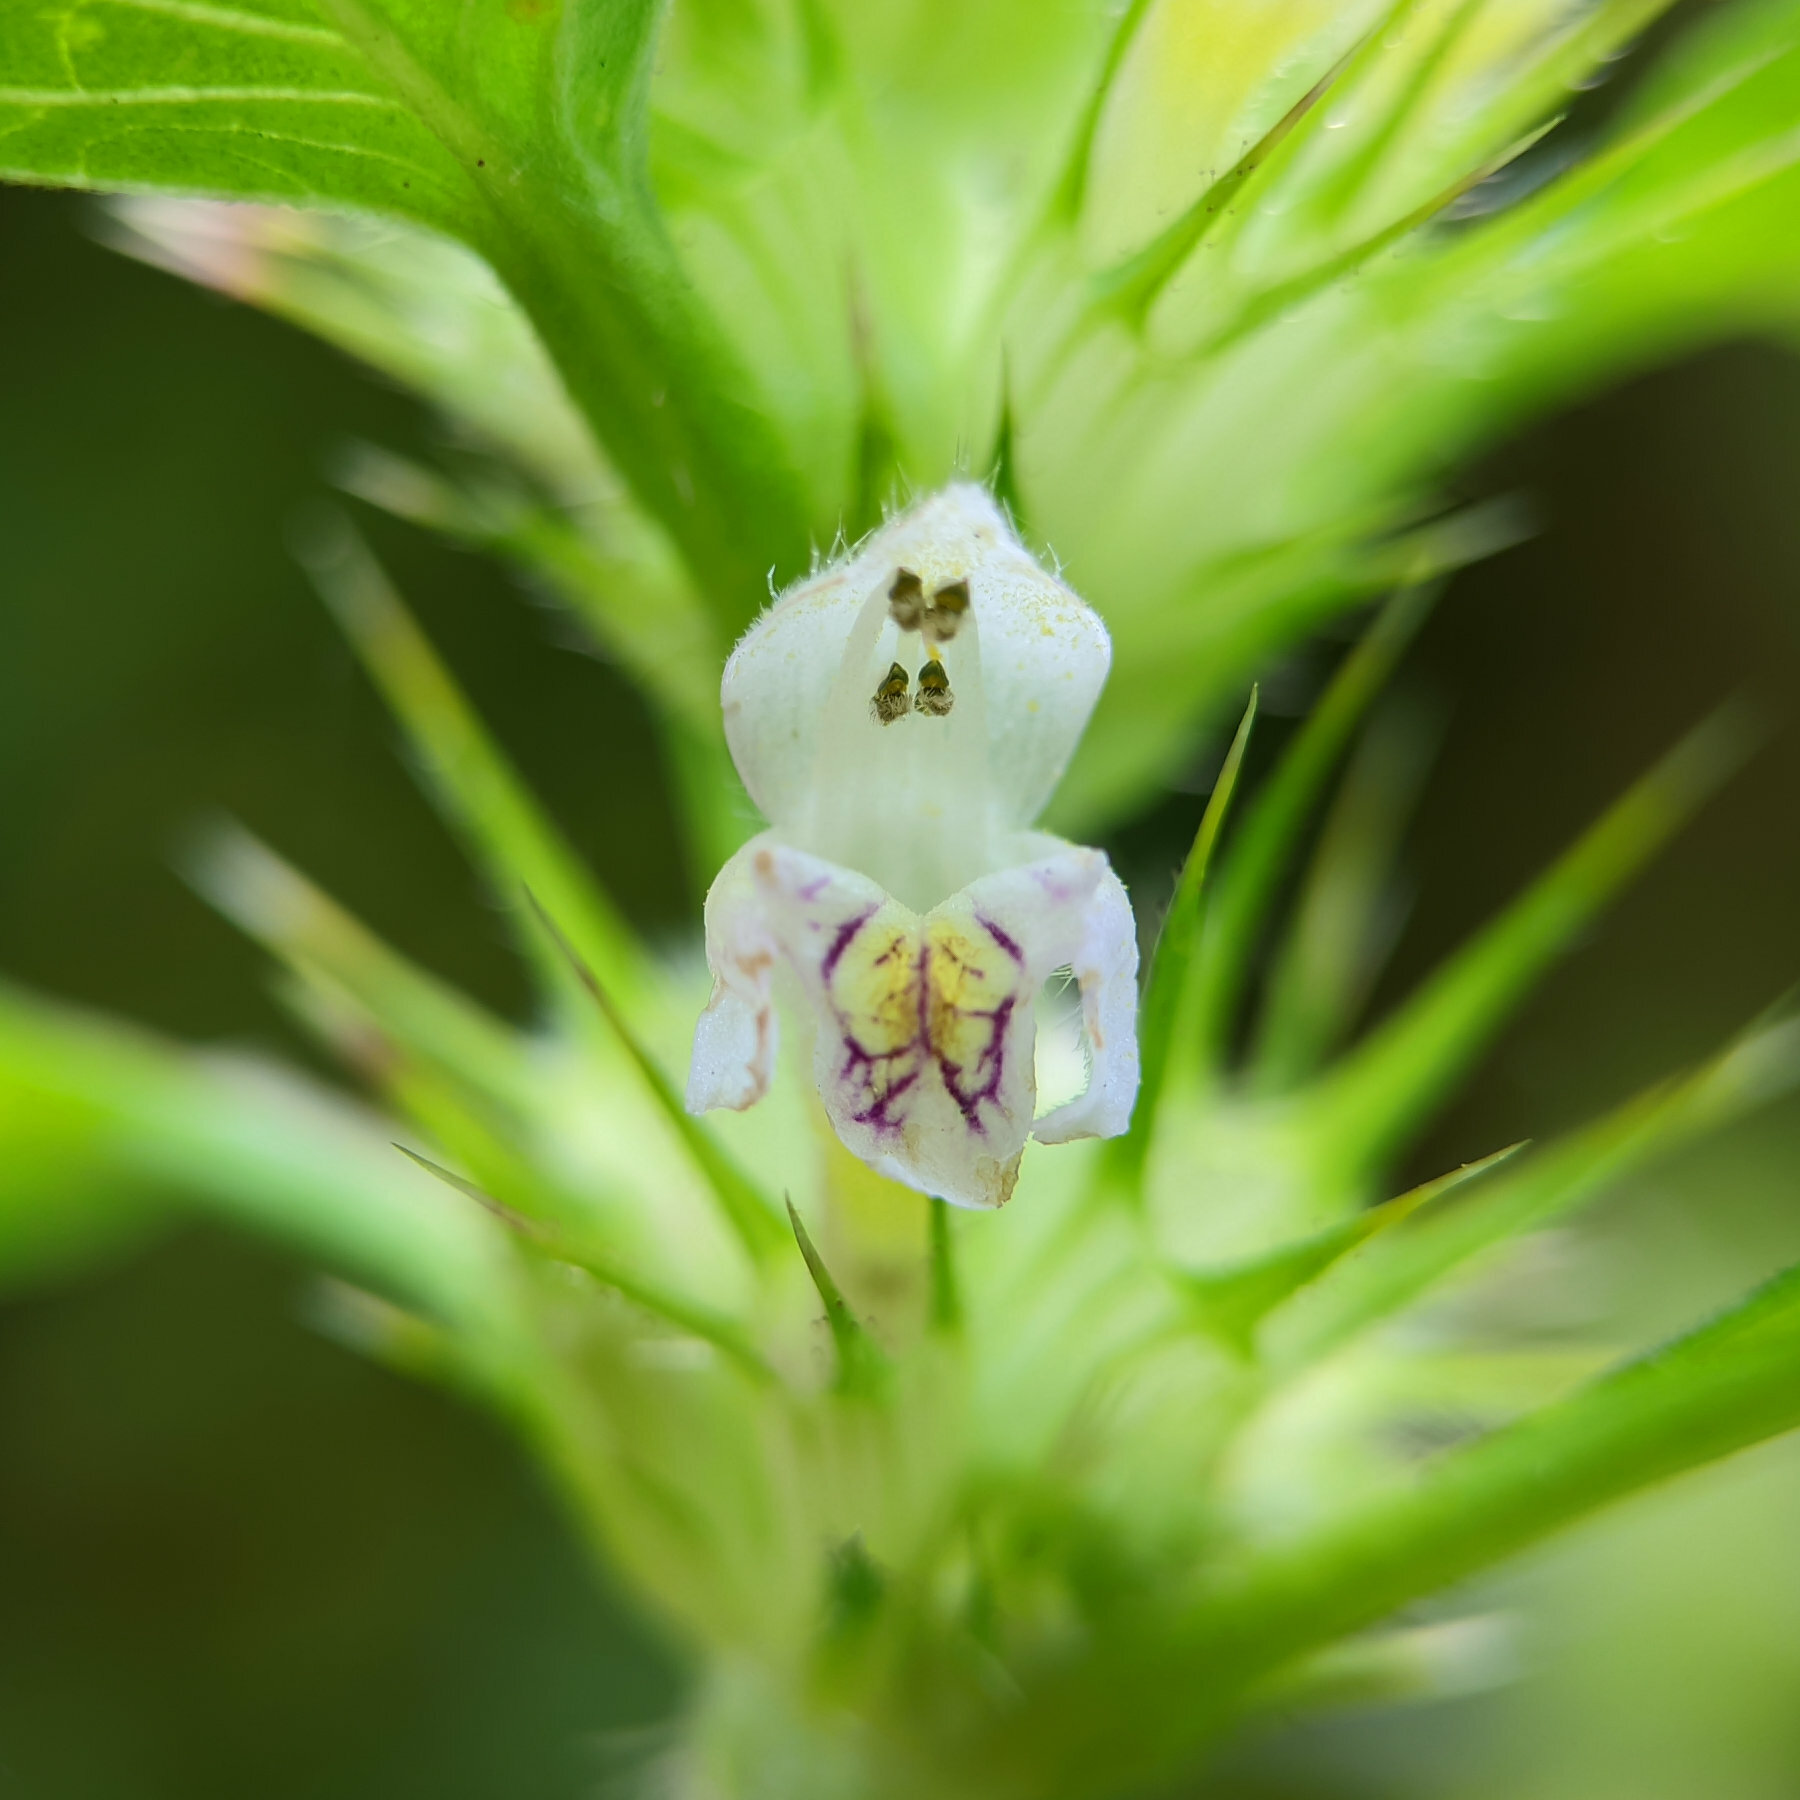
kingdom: Plantae
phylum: Tracheophyta
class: Magnoliopsida
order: Lamiales
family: Lamiaceae
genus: Galeopsis
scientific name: Galeopsis tetrahit
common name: Common hemp-nettle
